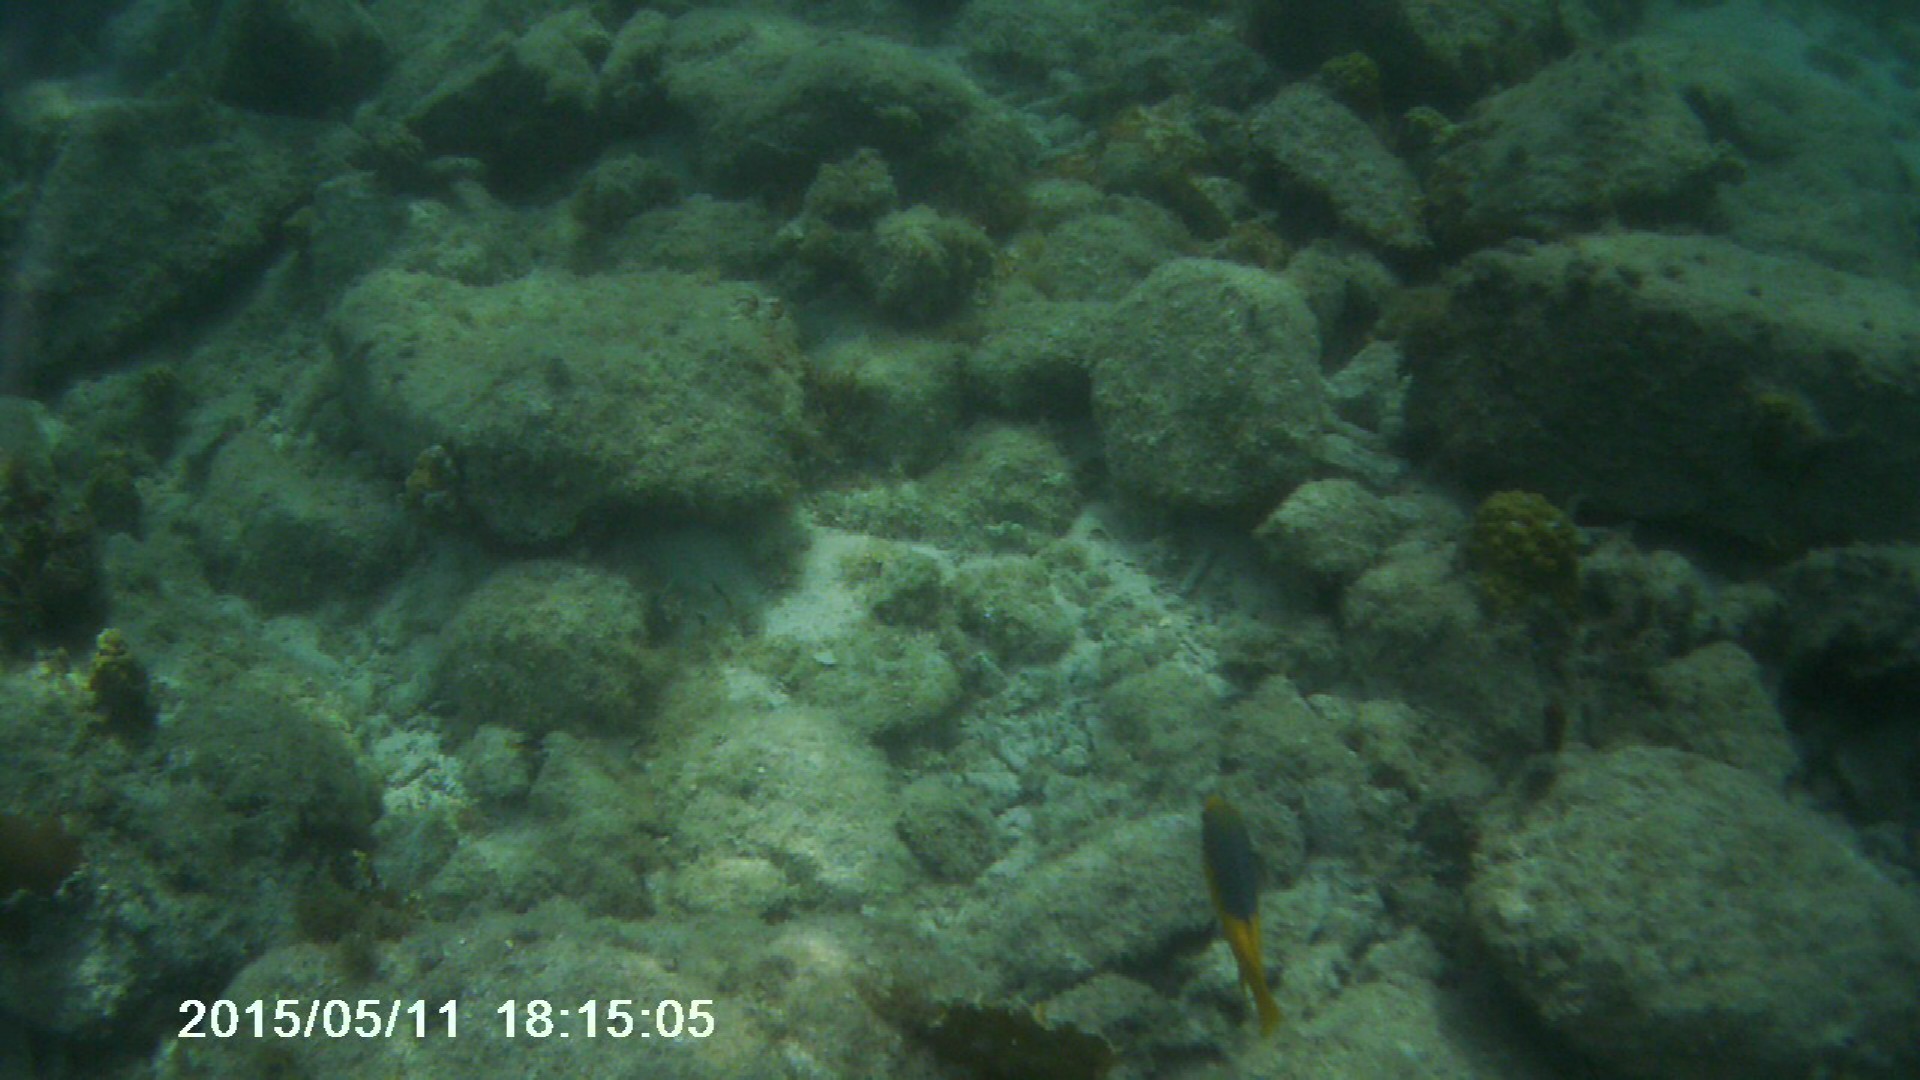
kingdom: Animalia
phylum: Chordata
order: Perciformes
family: Labridae
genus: Bodianus
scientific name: Bodianus rufus
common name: Spanish hogfish
